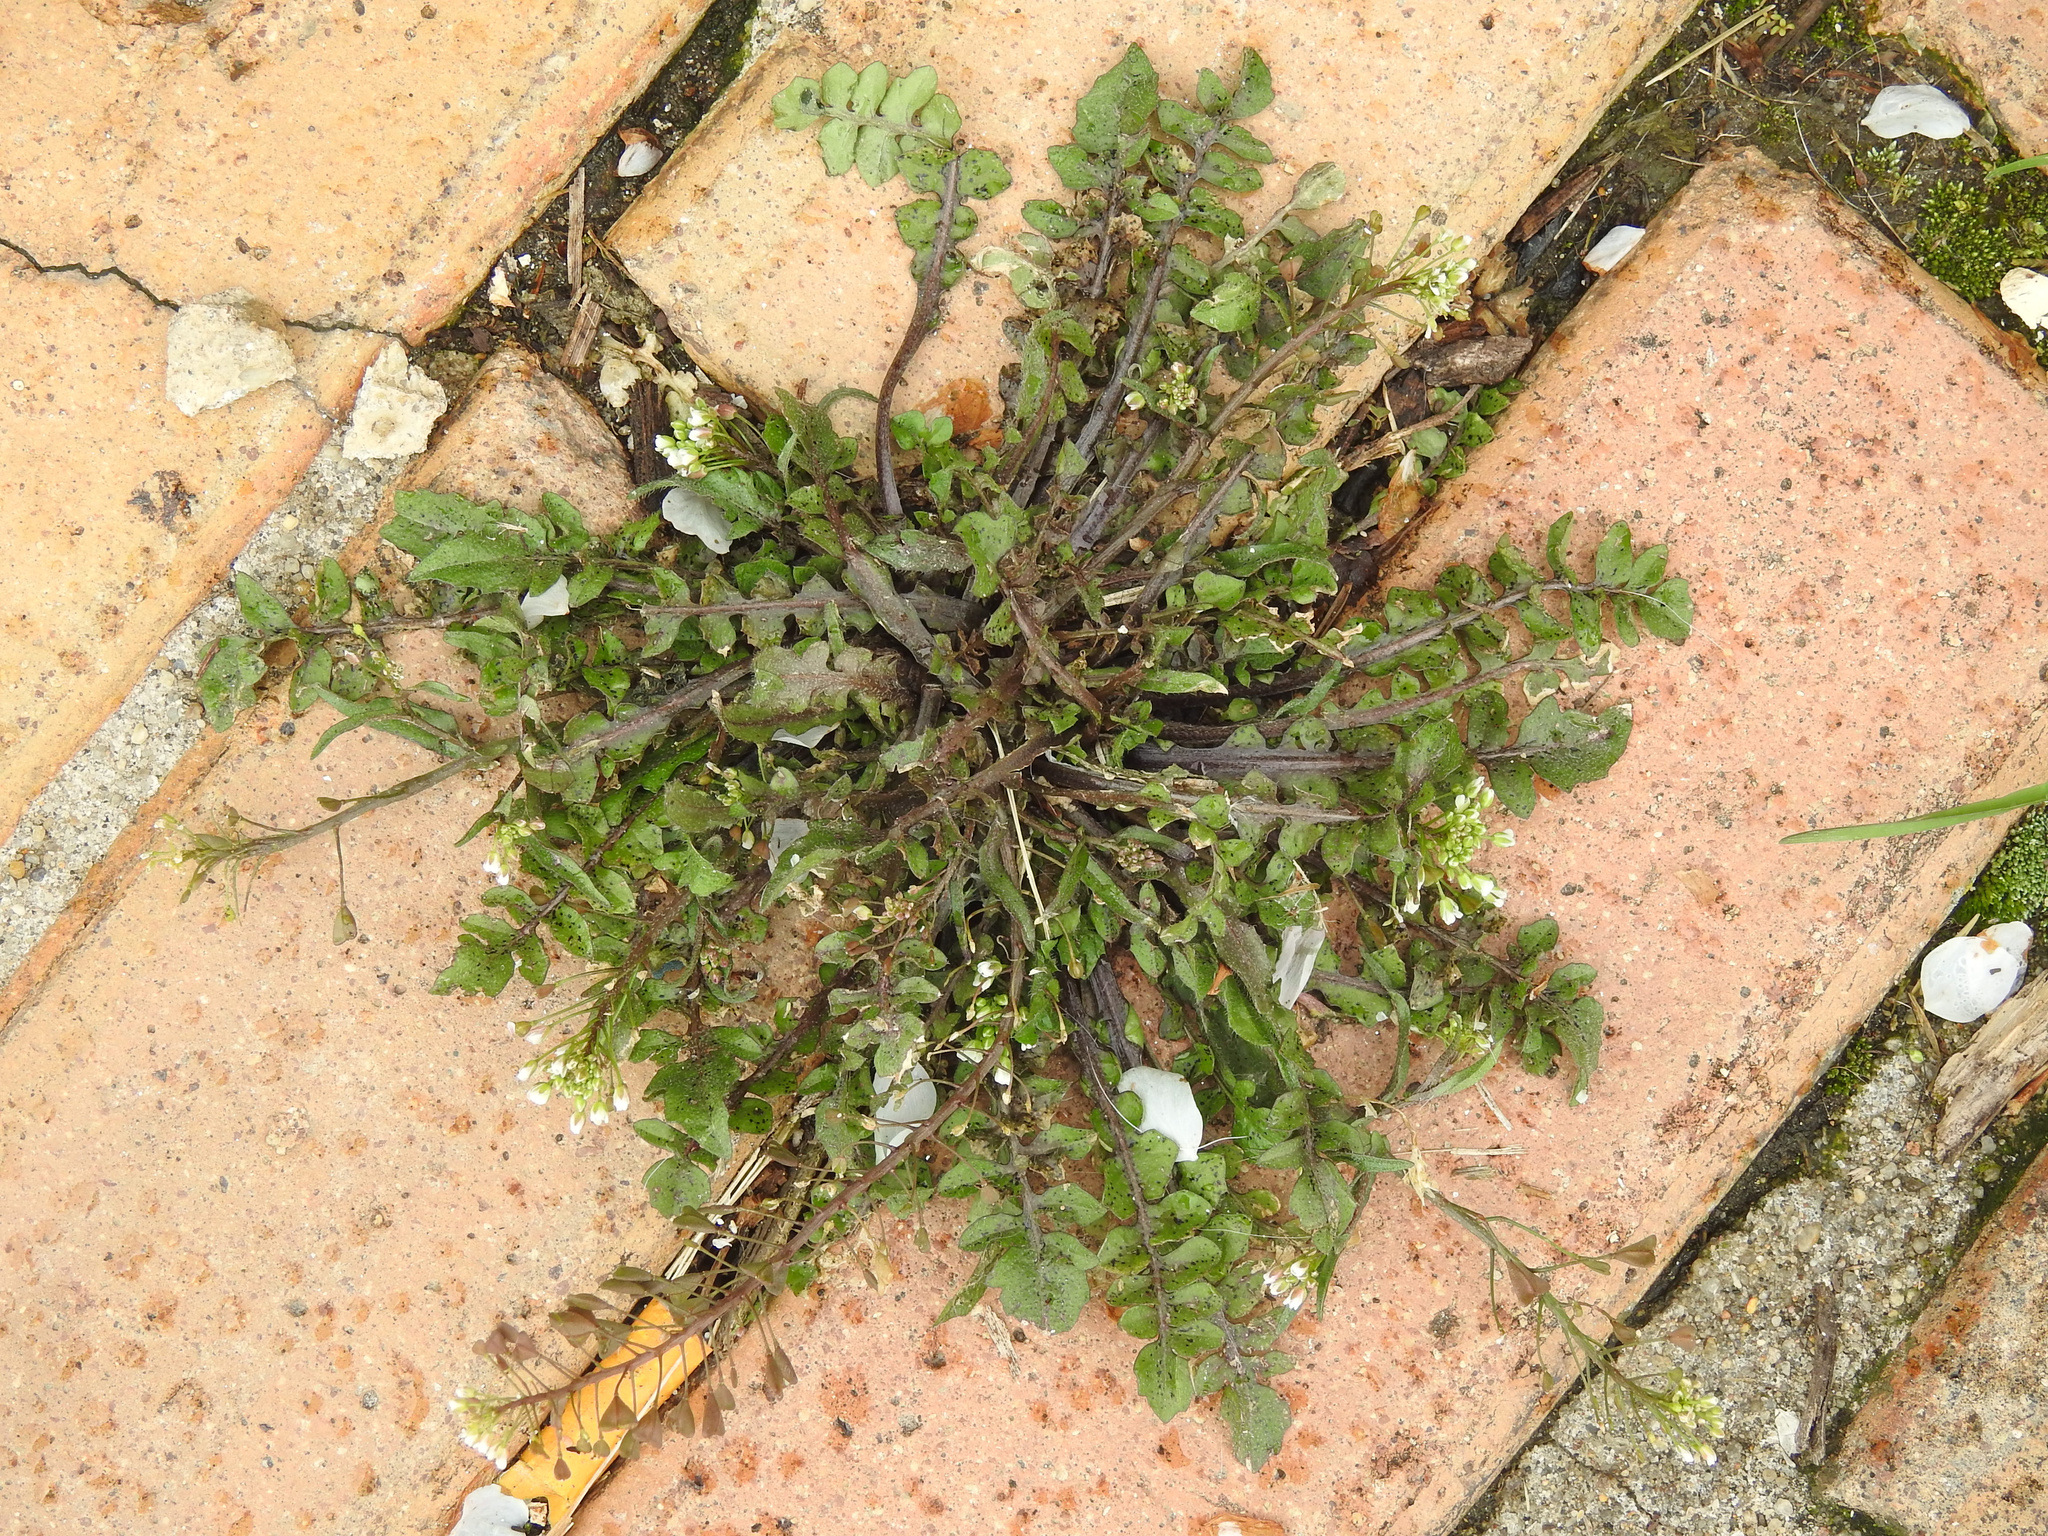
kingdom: Plantae
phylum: Tracheophyta
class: Magnoliopsida
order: Brassicales
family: Brassicaceae
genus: Capsella
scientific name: Capsella bursa-pastoris
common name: Shepherd's purse
